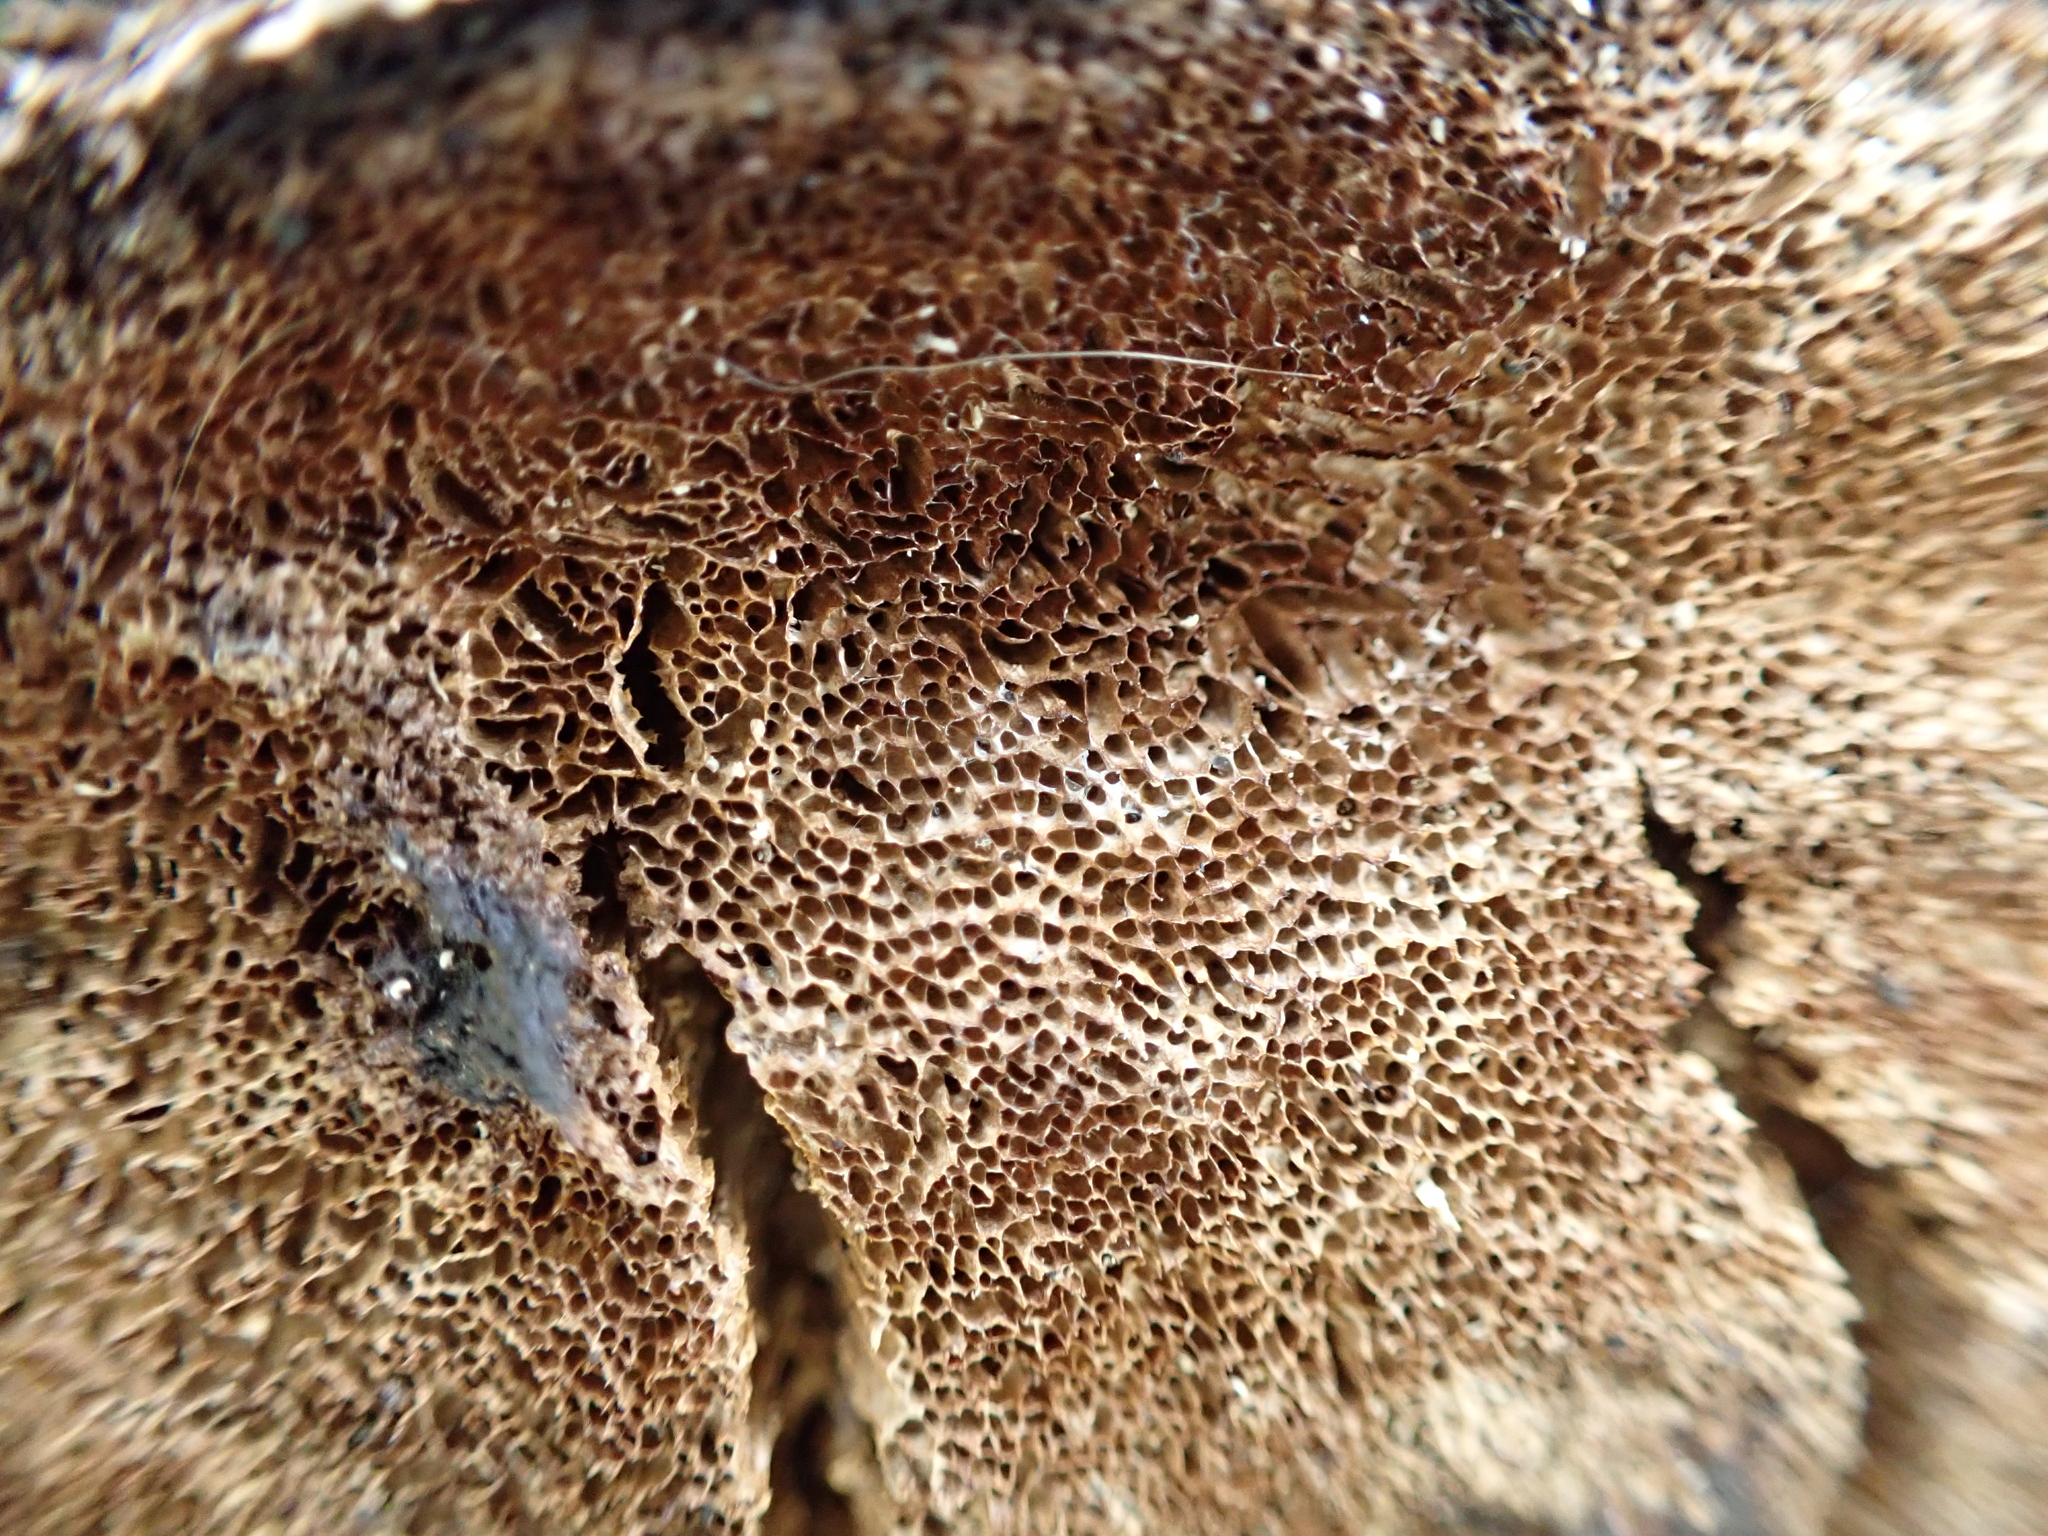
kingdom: Fungi
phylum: Basidiomycota
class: Agaricomycetes
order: Hymenochaetales
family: Hymenochaetaceae
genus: Fuscoporia
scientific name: Fuscoporia setifera
